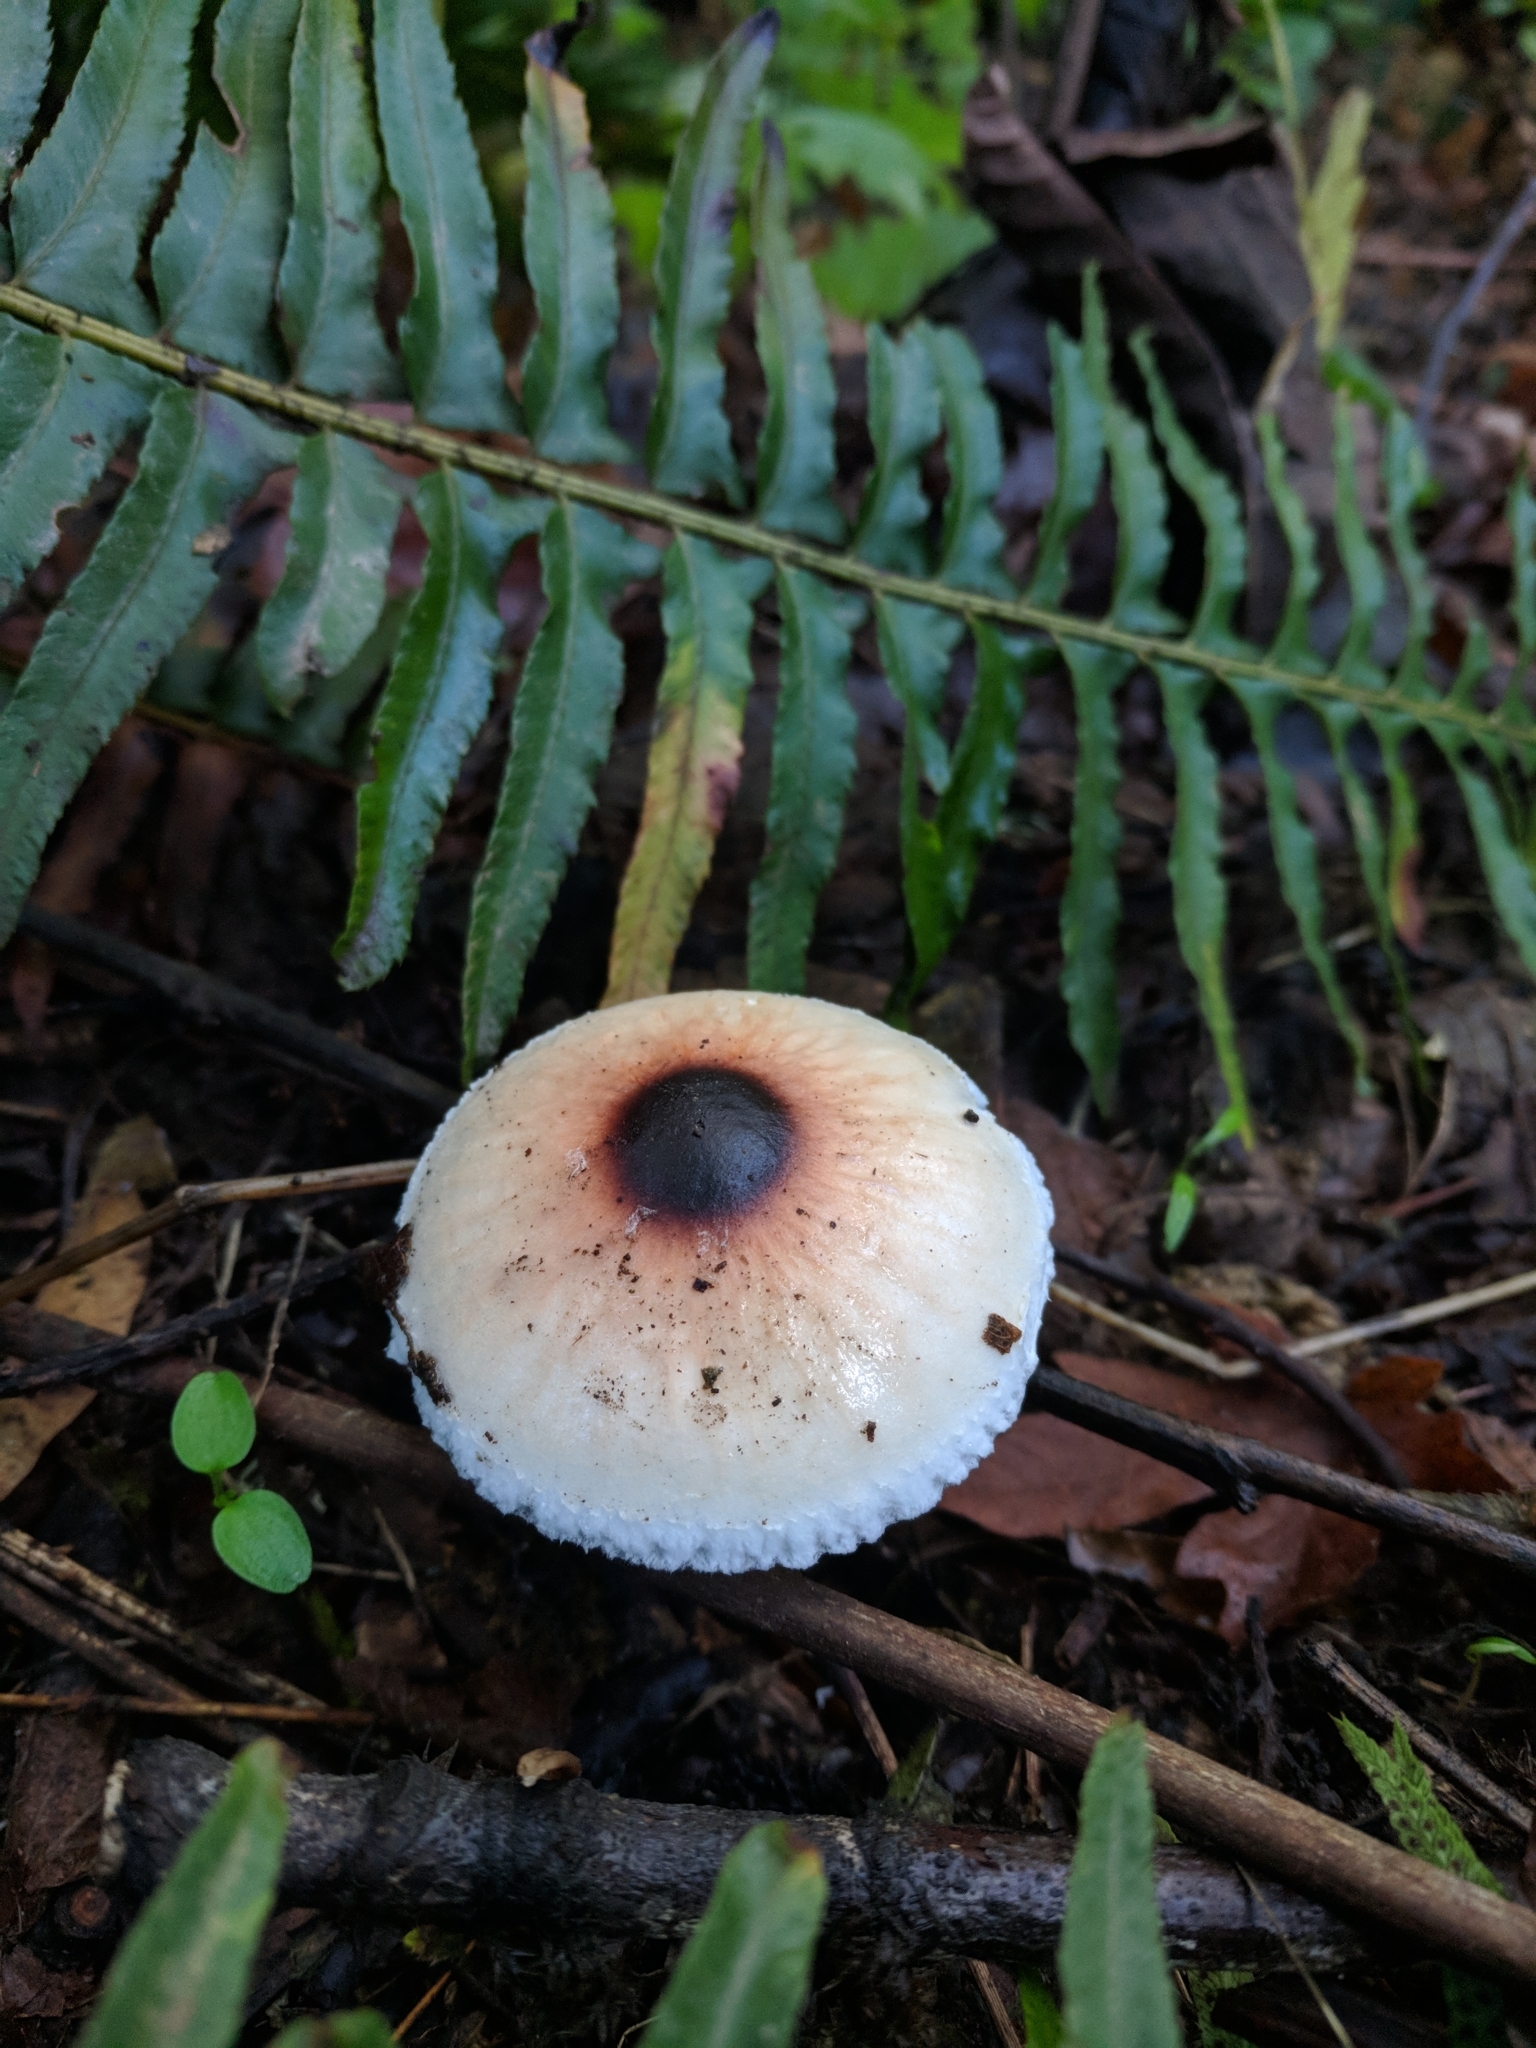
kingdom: Fungi
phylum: Basidiomycota
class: Agaricomycetes
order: Agaricales
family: Agaricaceae
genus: Lepiota
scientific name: Lepiota rubrotinctoides
